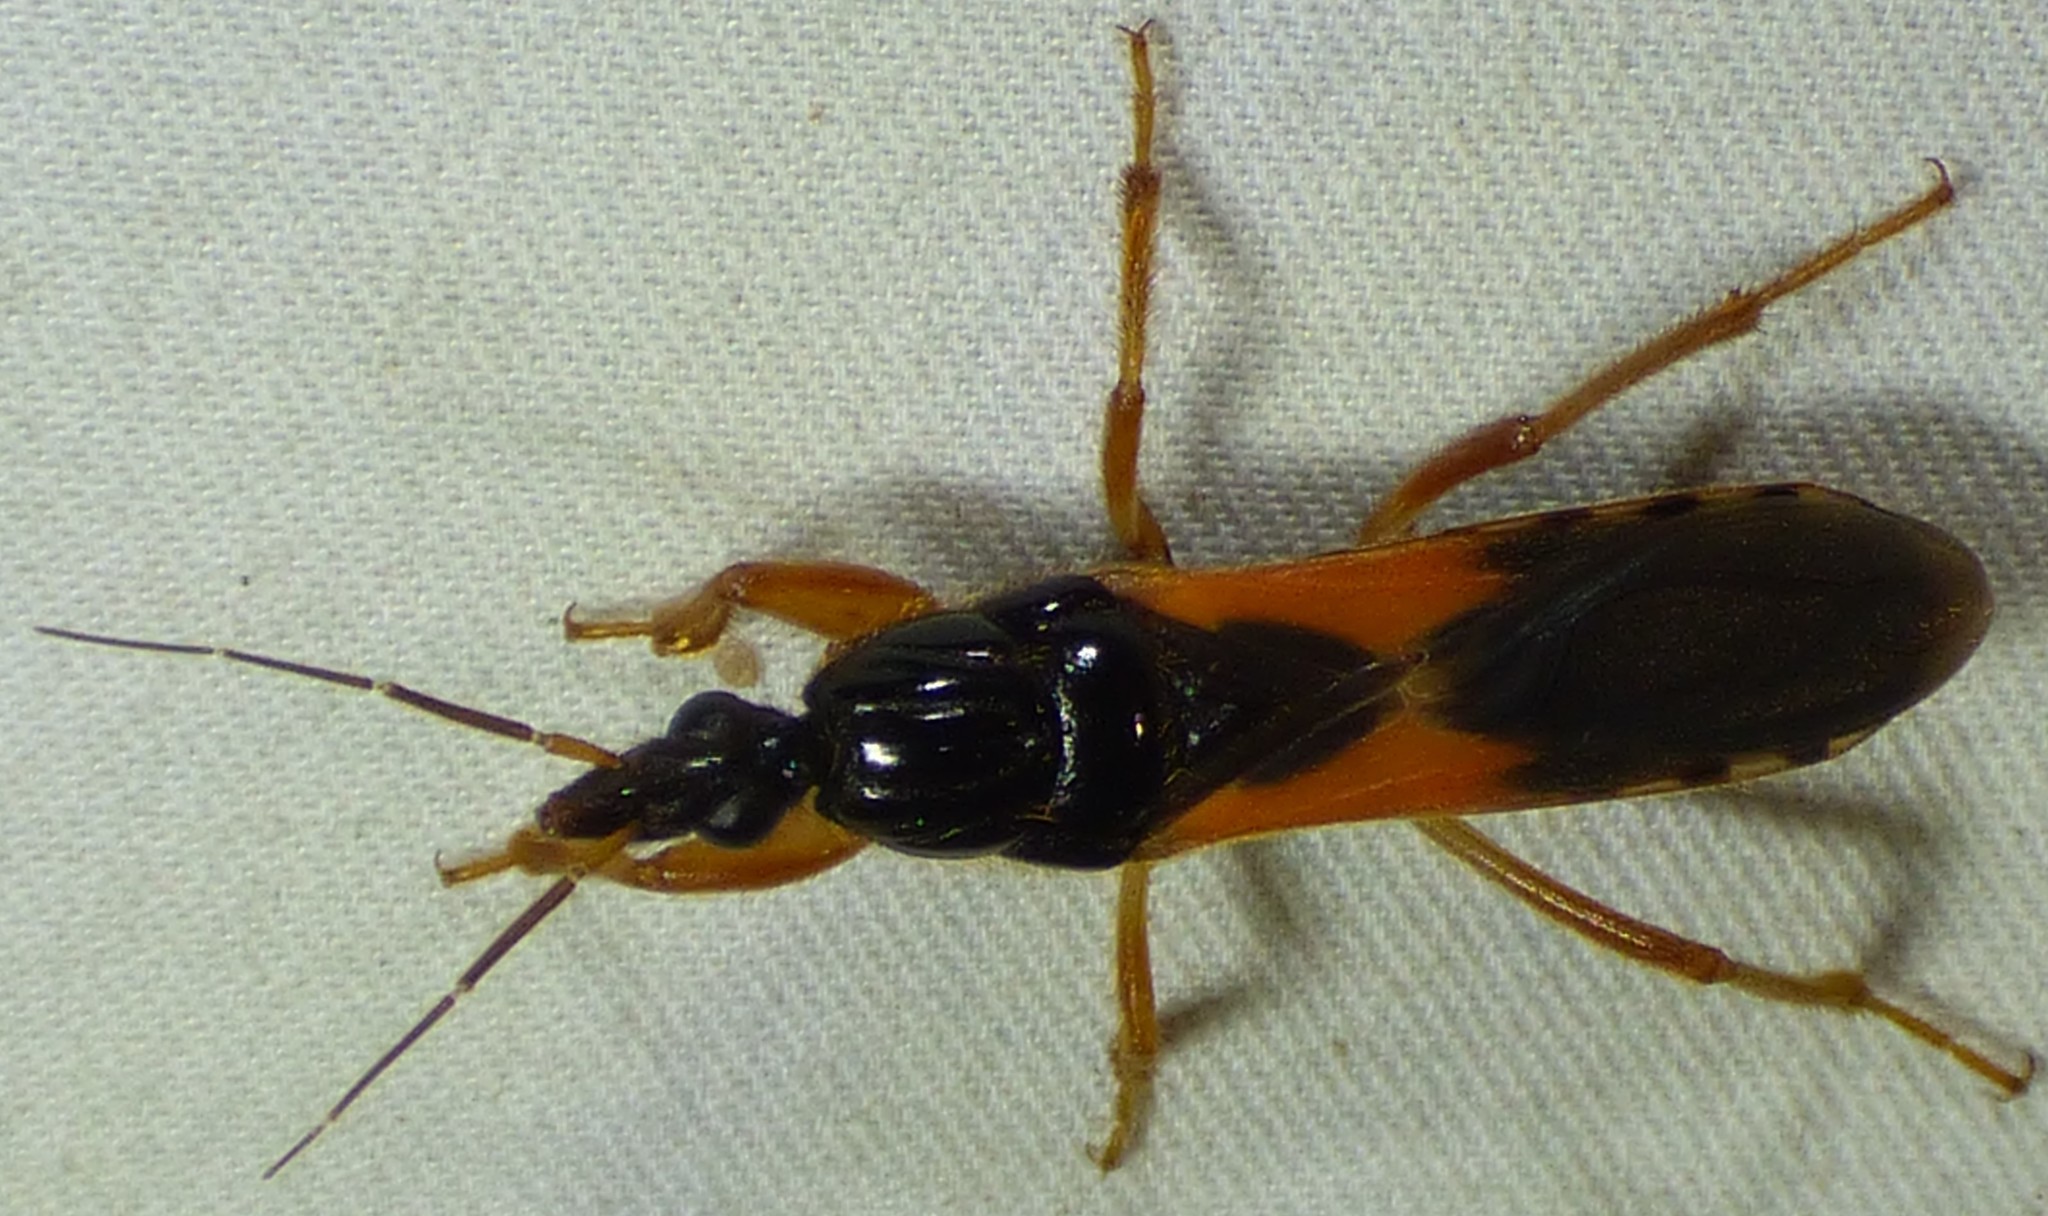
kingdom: Animalia
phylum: Arthropoda
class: Insecta
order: Hemiptera
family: Reduviidae
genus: Sirthenea
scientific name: Sirthenea stria
